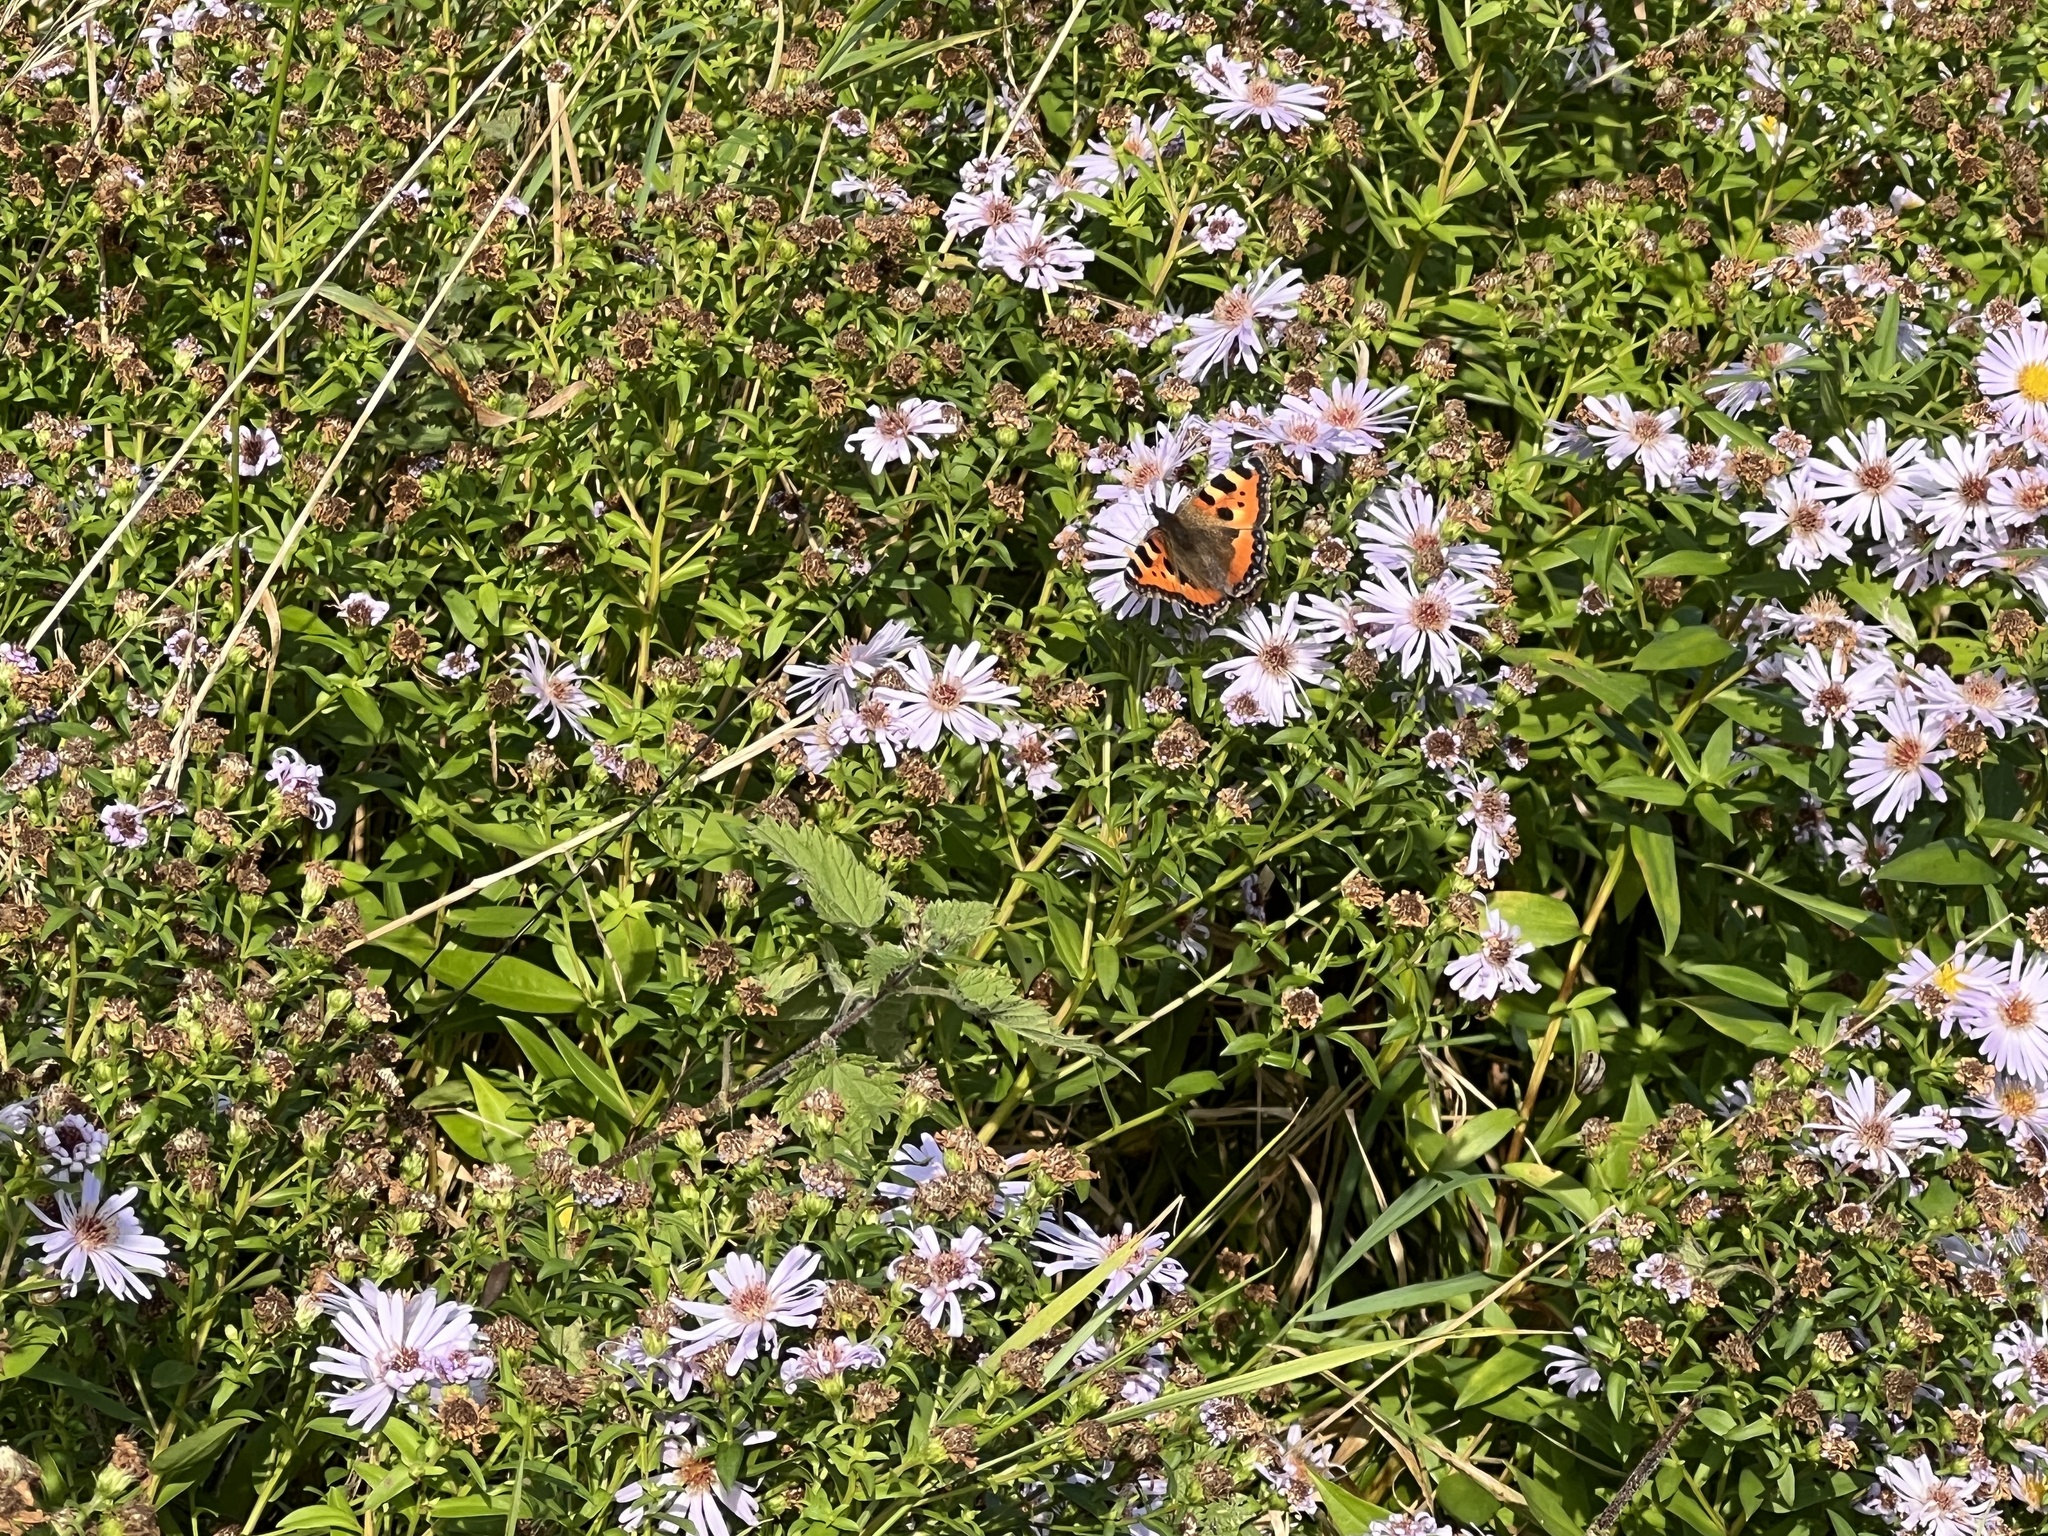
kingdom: Animalia
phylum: Arthropoda
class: Insecta
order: Lepidoptera
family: Nymphalidae
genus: Aglais
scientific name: Aglais urticae
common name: Small tortoiseshell
